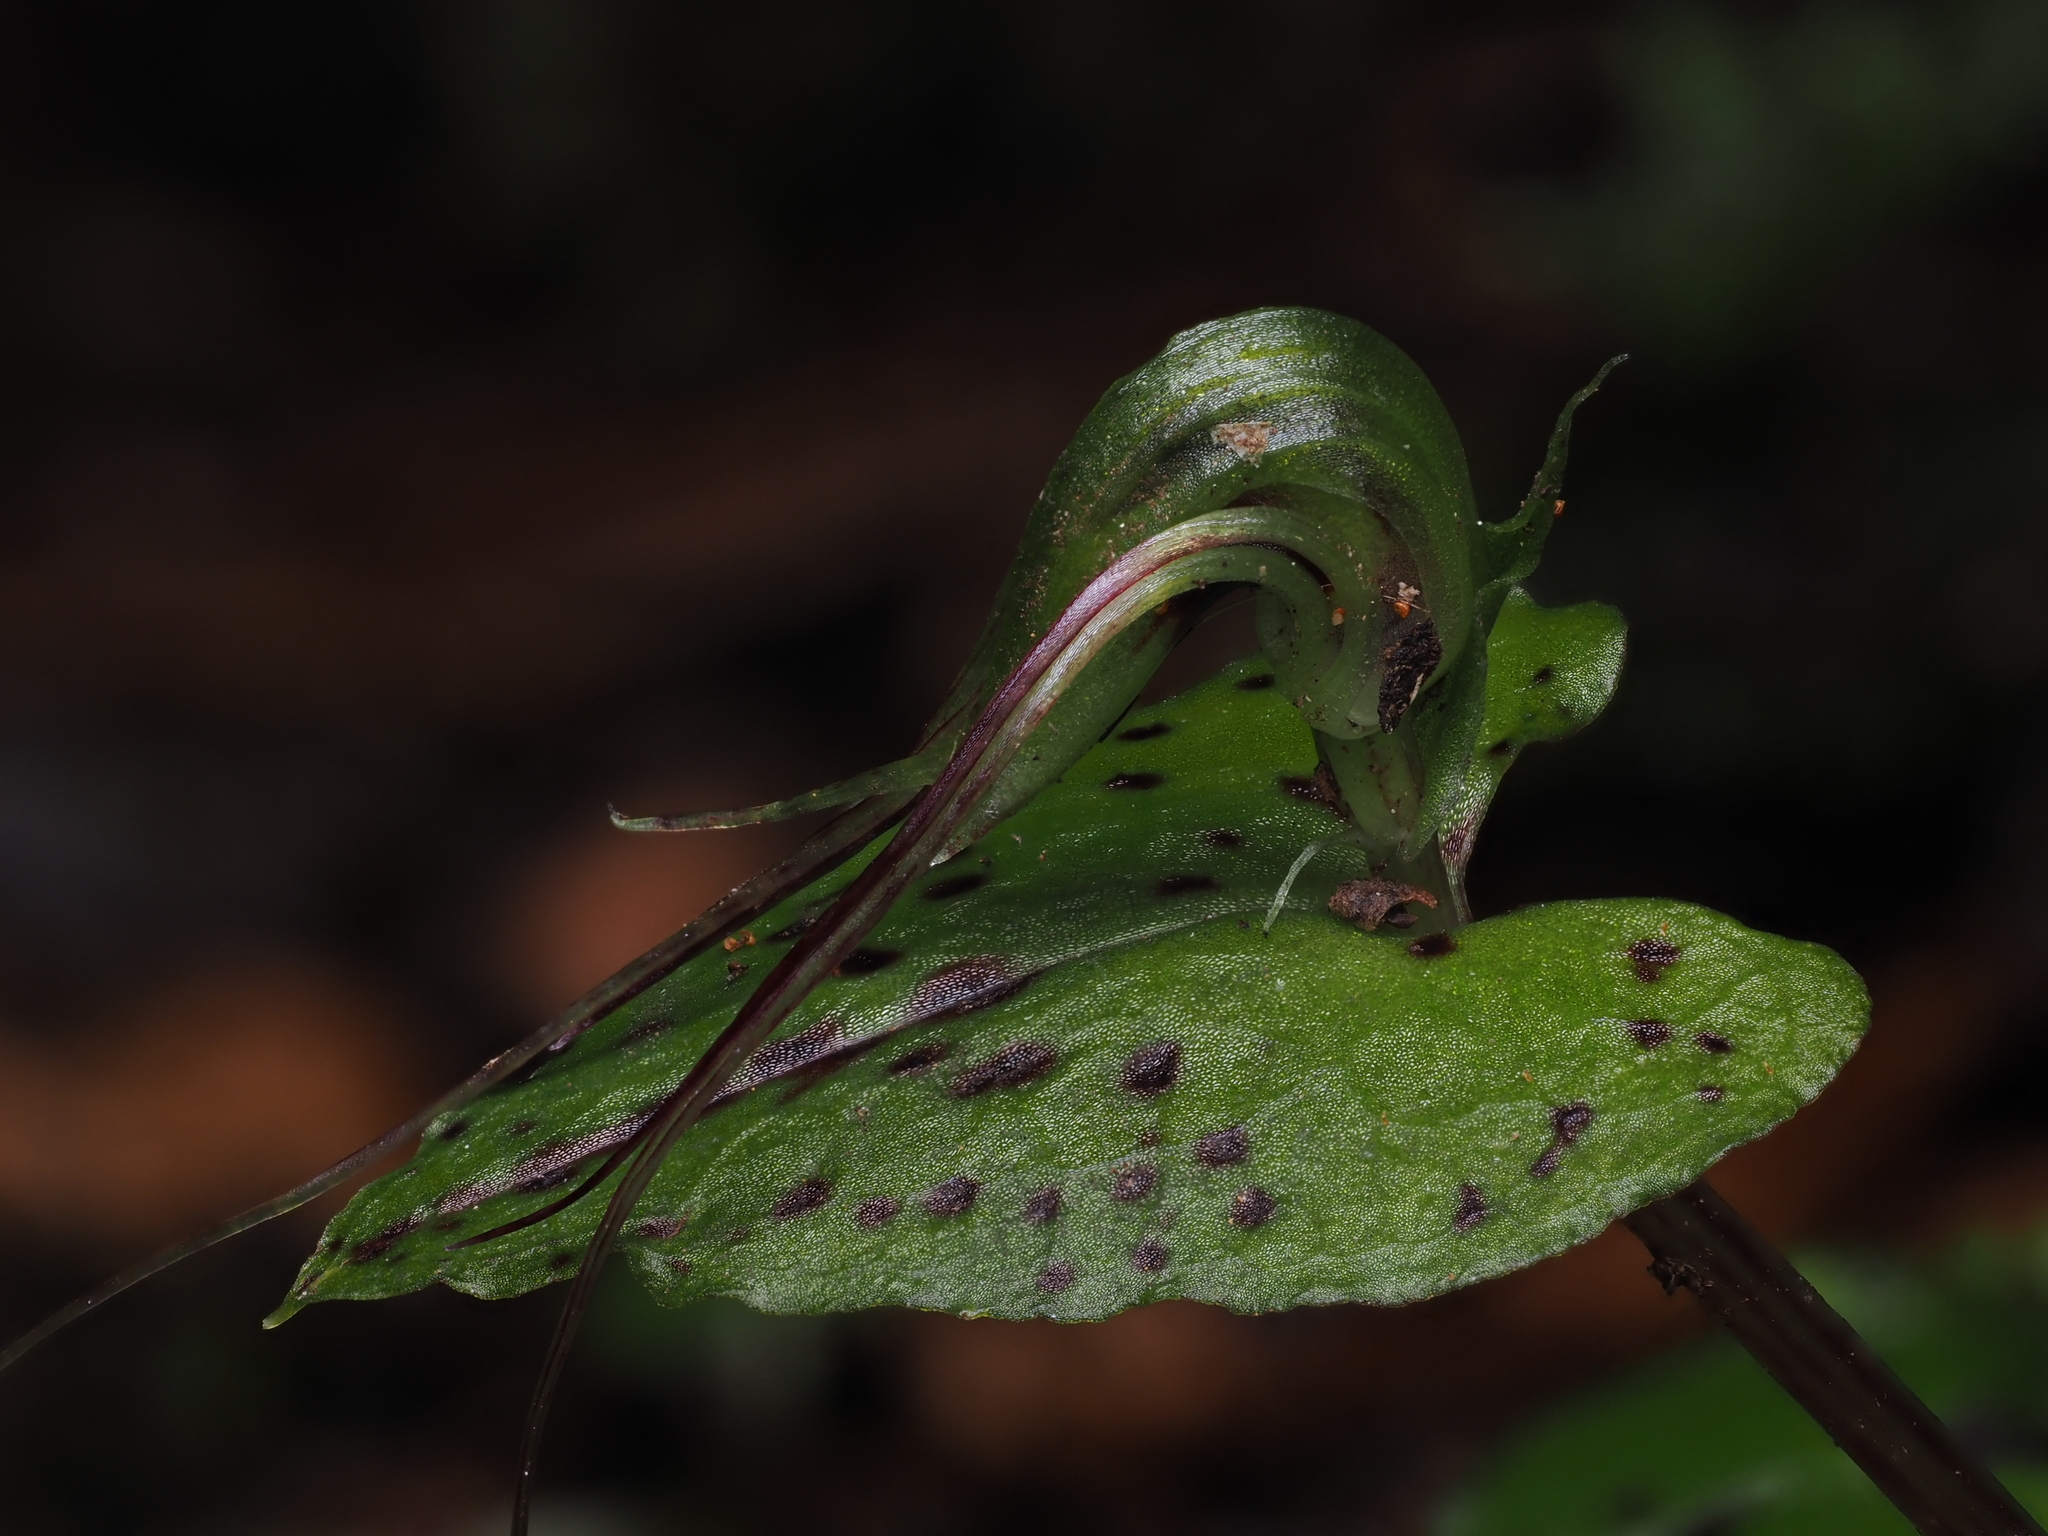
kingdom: Plantae
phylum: Tracheophyta
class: Liliopsida
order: Asparagales
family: Orchidaceae
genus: Corybas
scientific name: Corybas acuminatus
